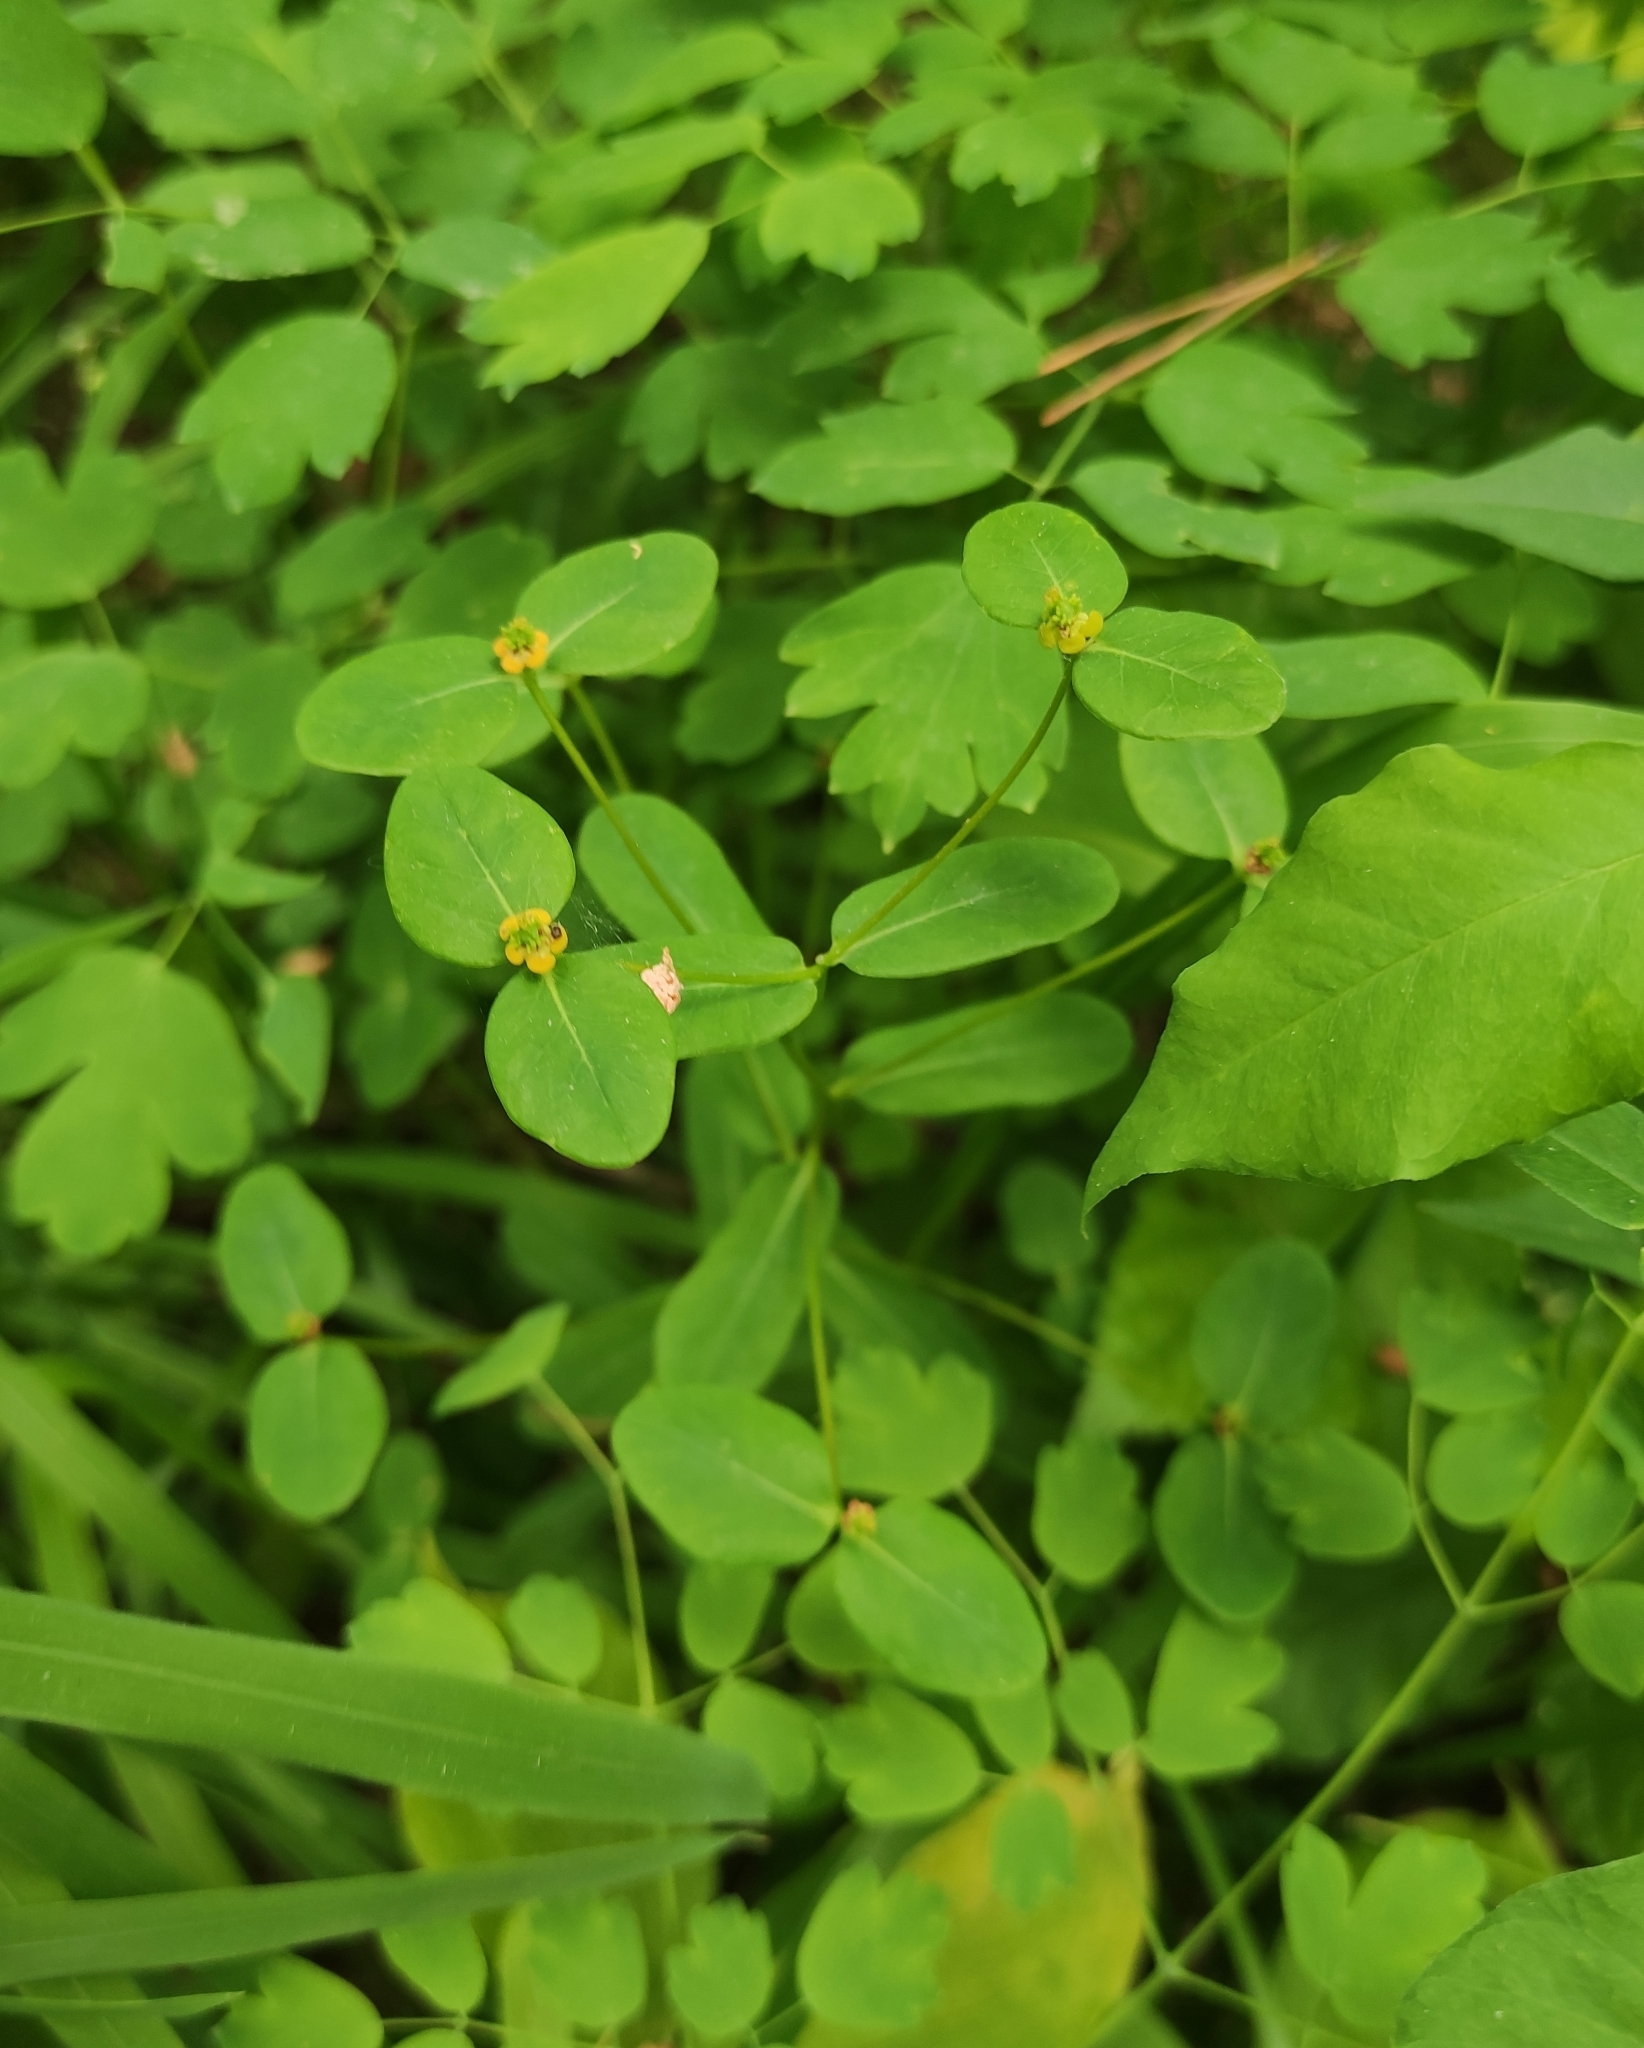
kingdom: Plantae
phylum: Tracheophyta
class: Magnoliopsida
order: Malpighiales
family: Euphorbiaceae
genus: Euphorbia
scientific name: Euphorbia jenisseiensis
